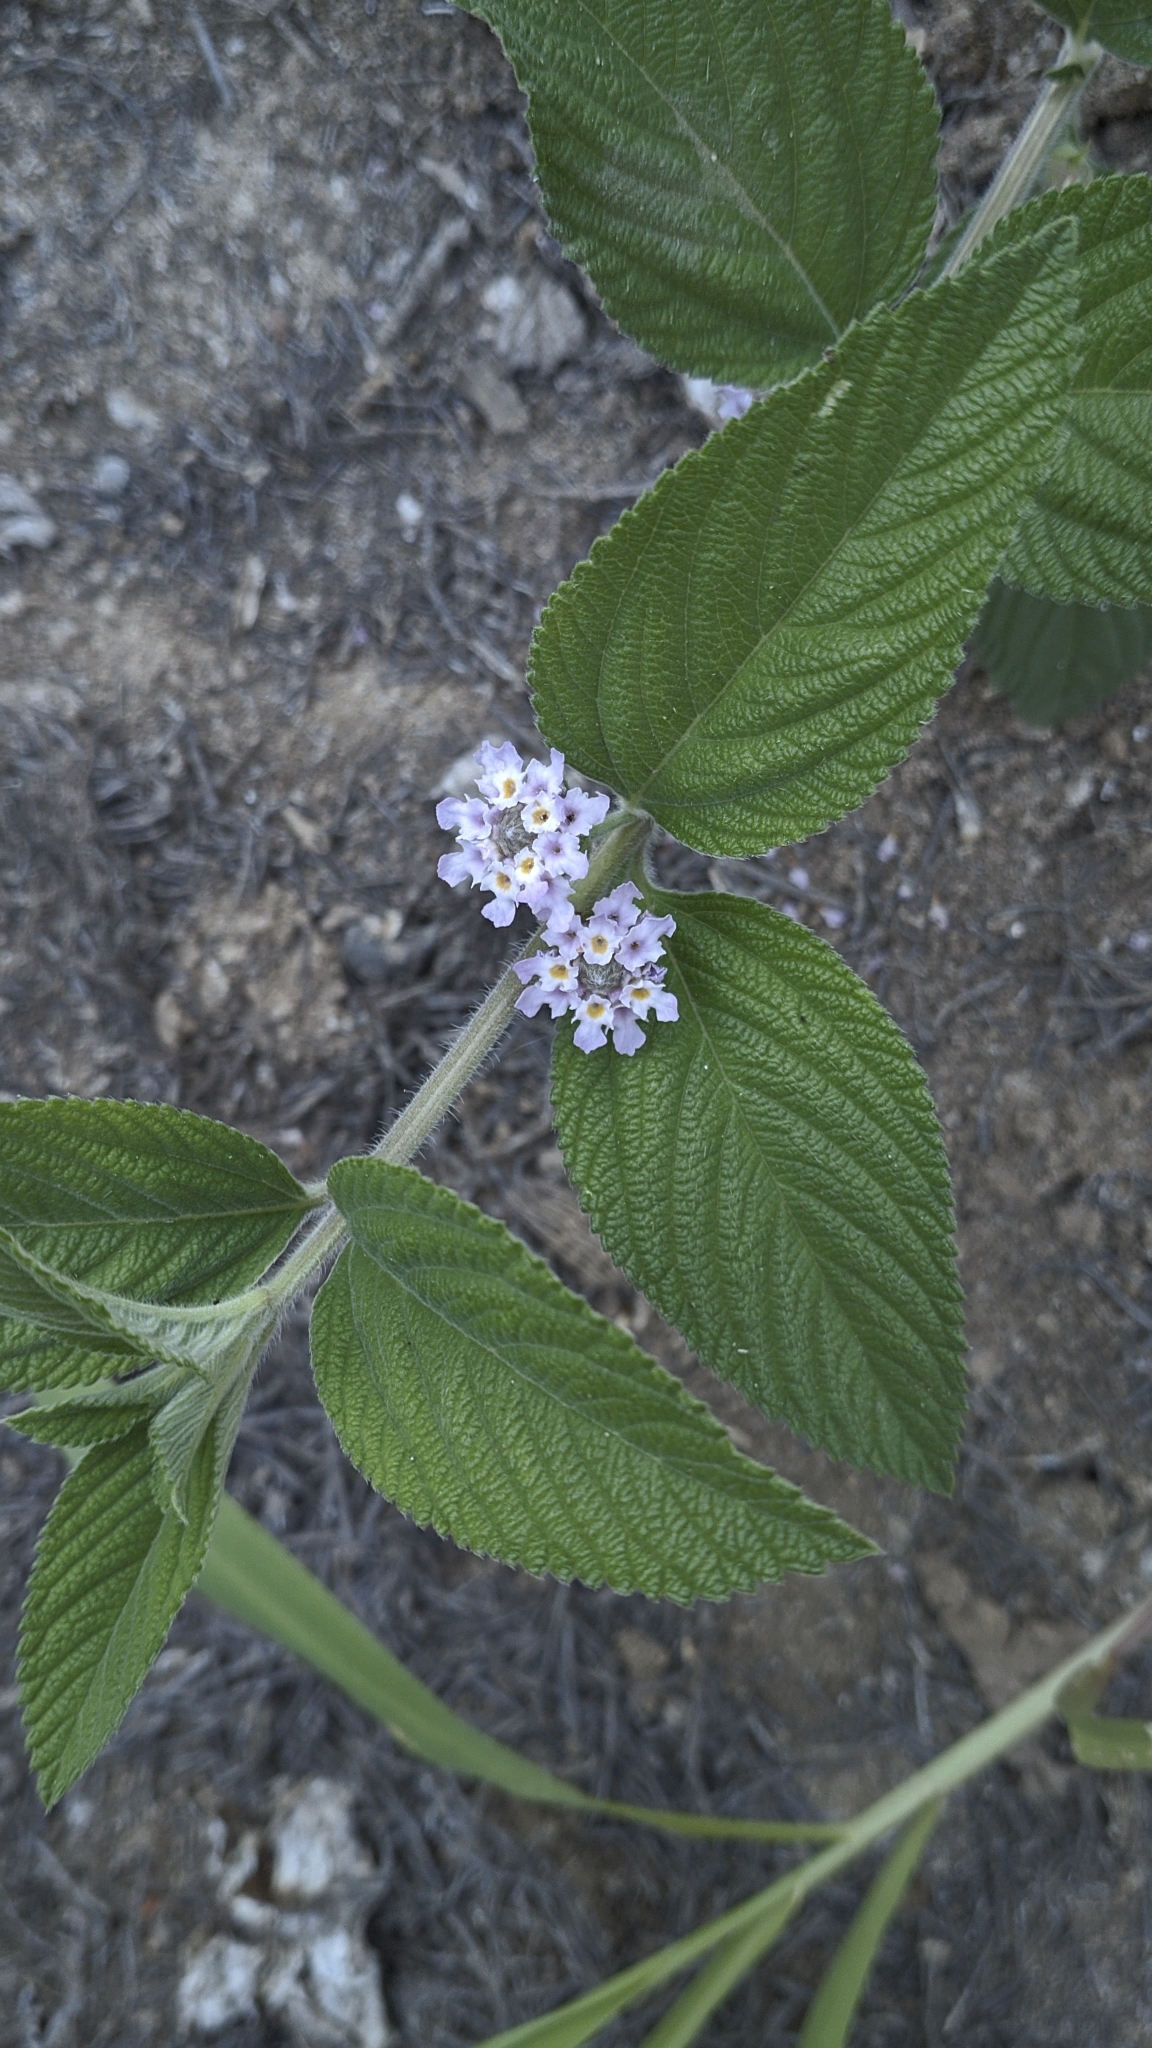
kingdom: Plantae
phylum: Tracheophyta
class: Magnoliopsida
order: Lamiales
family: Verbenaceae
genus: Lippia
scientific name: Lippia alba
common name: Bushy matgrass
